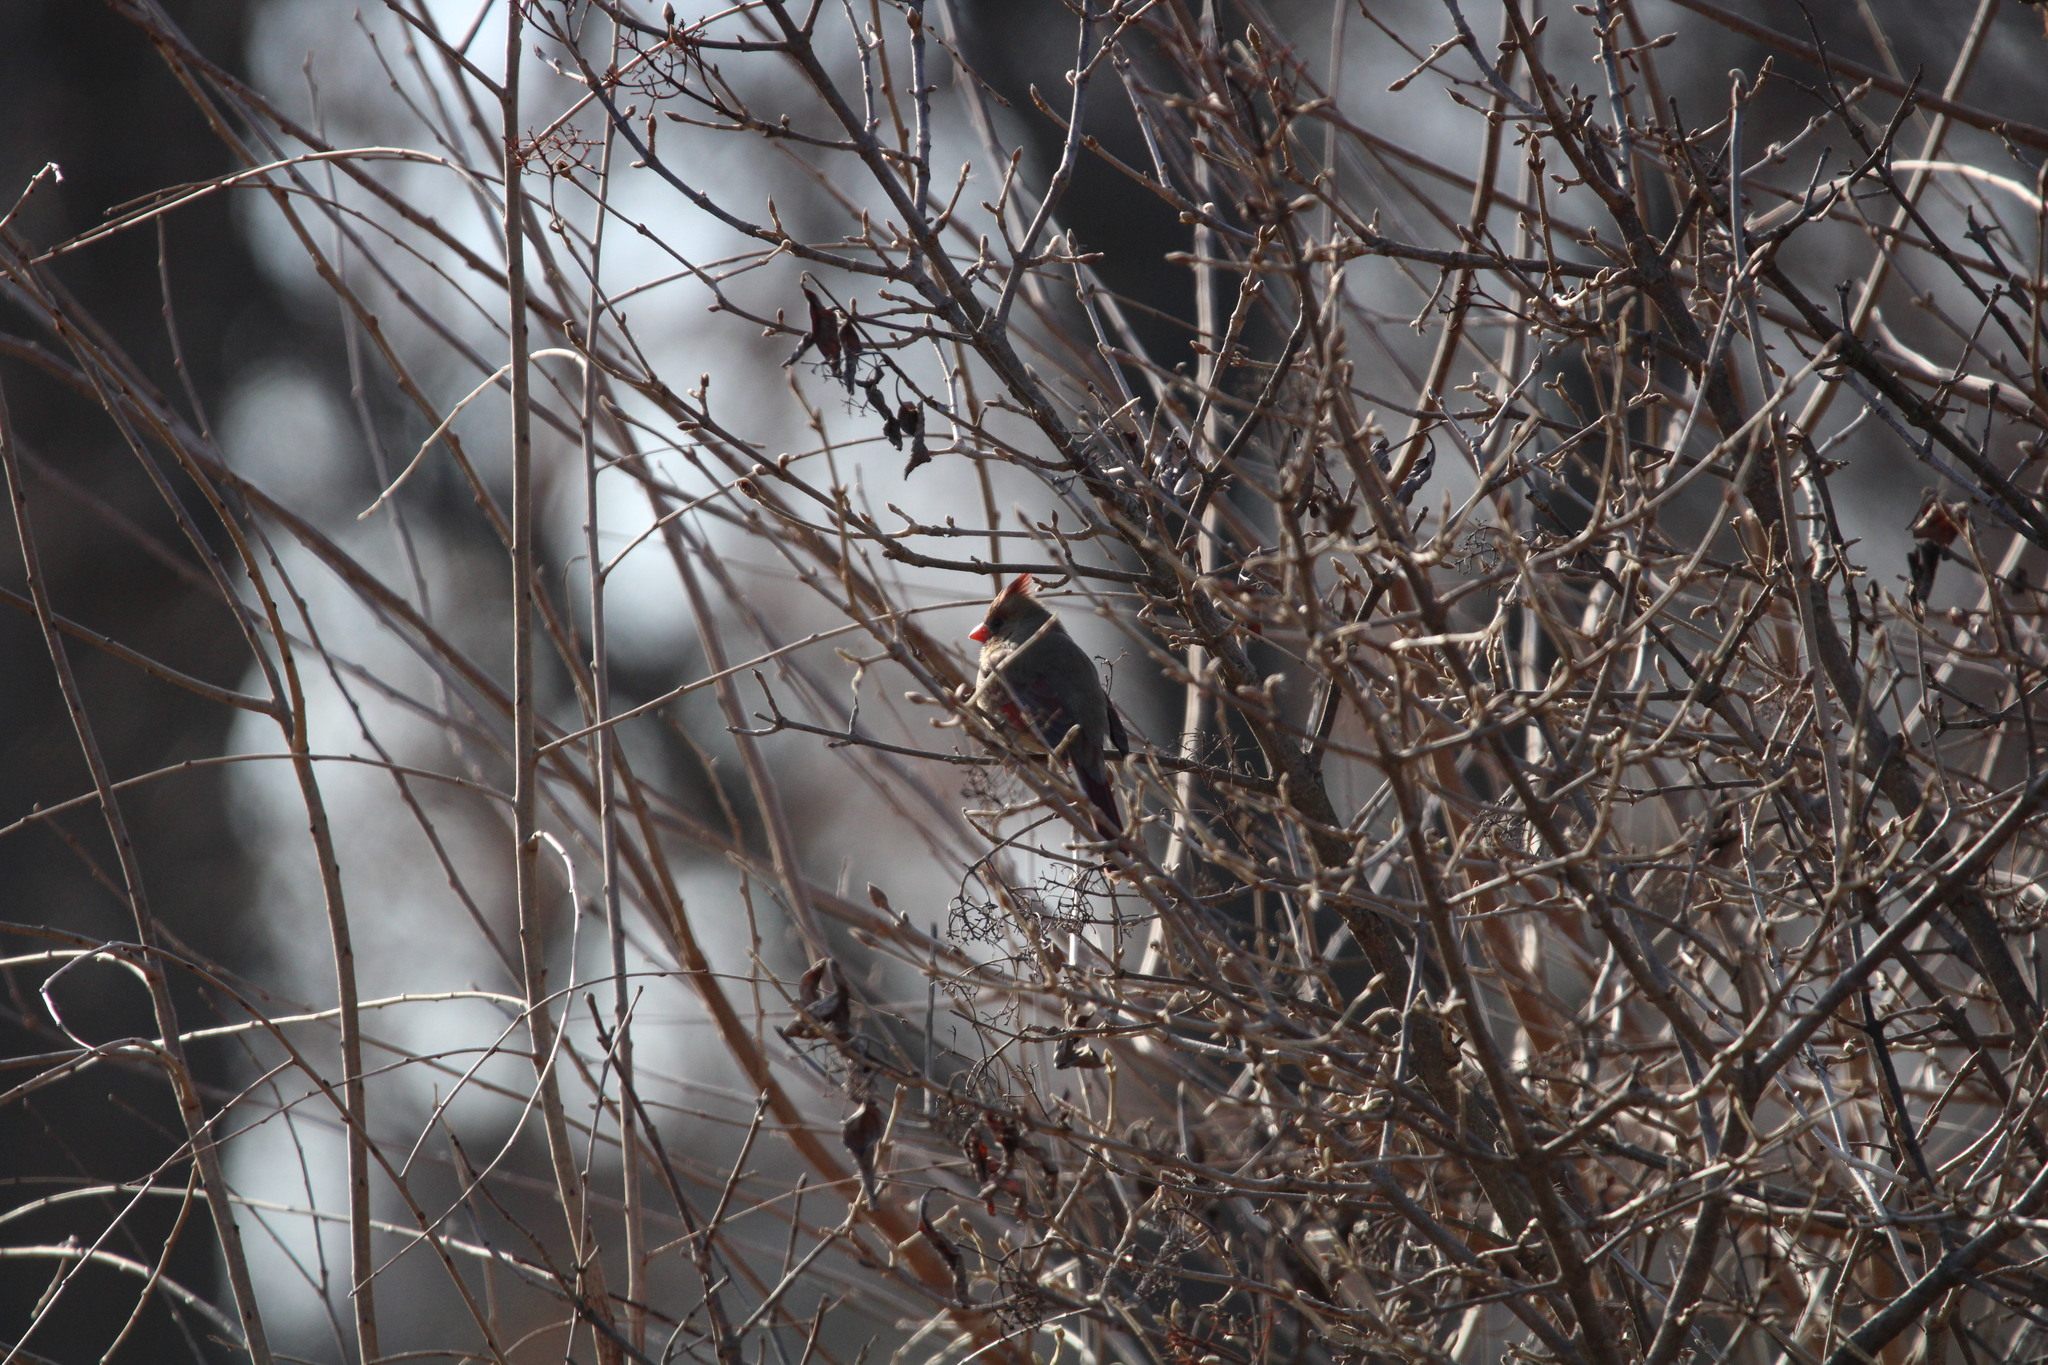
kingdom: Animalia
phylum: Chordata
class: Aves
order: Passeriformes
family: Cardinalidae
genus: Cardinalis
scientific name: Cardinalis cardinalis
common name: Northern cardinal
